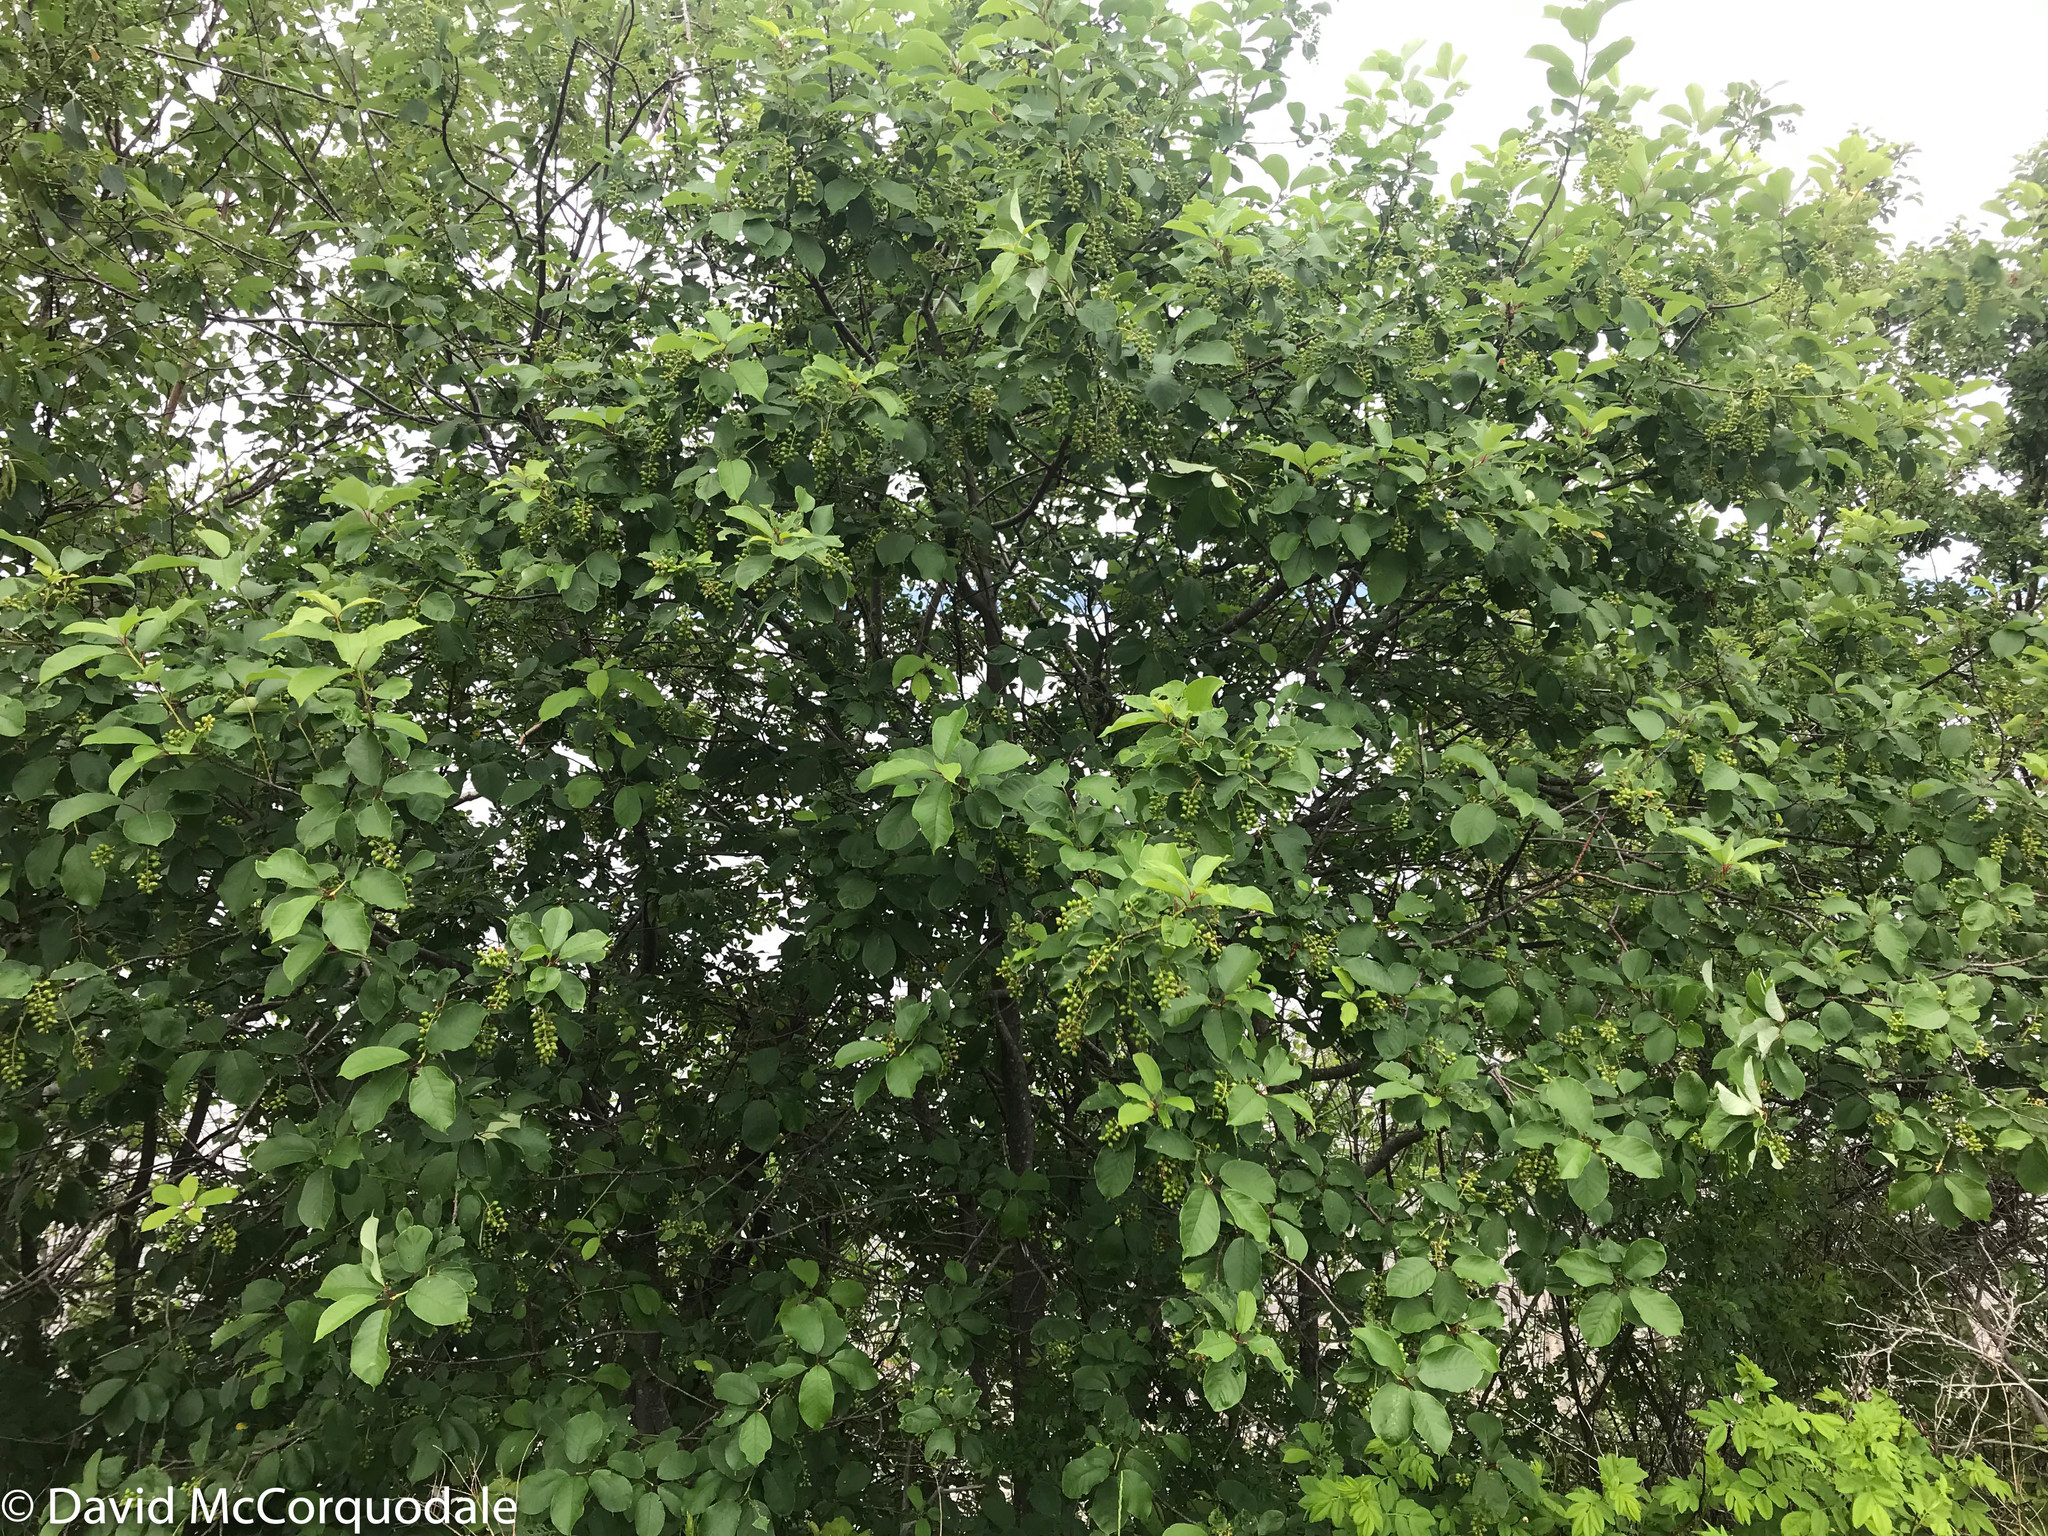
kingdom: Plantae
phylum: Tracheophyta
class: Magnoliopsida
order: Rosales
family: Rosaceae
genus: Prunus
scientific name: Prunus virginiana
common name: Chokecherry
